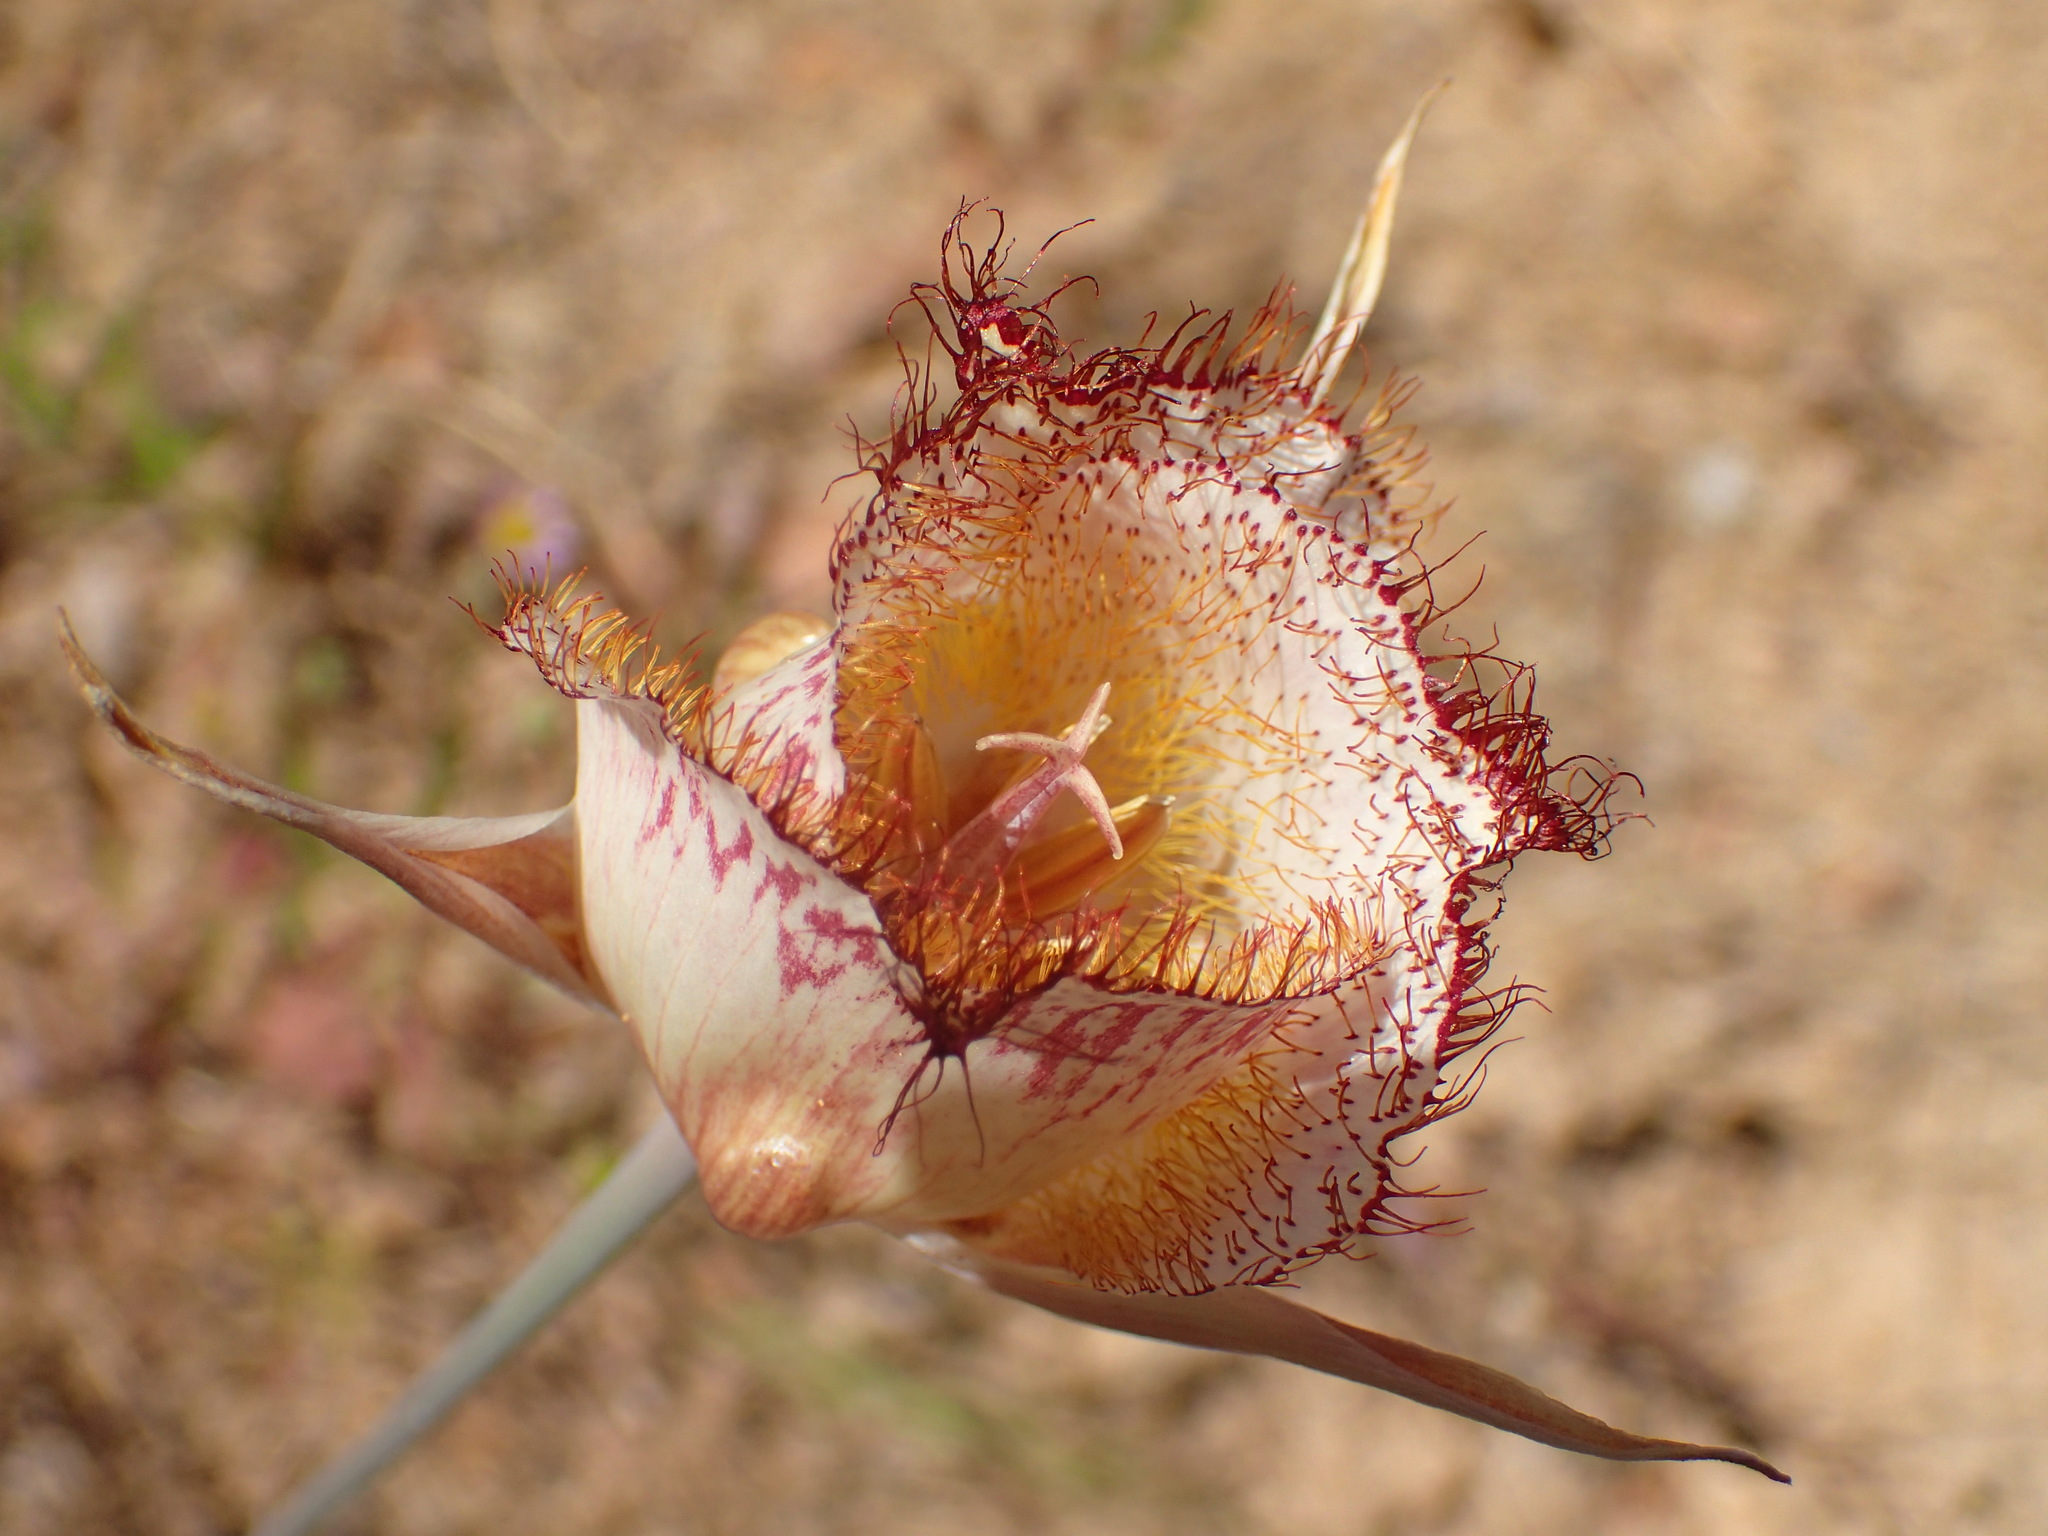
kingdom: Plantae
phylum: Tracheophyta
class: Liliopsida
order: Liliales
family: Liliaceae
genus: Calochortus
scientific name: Calochortus fimbriatus
